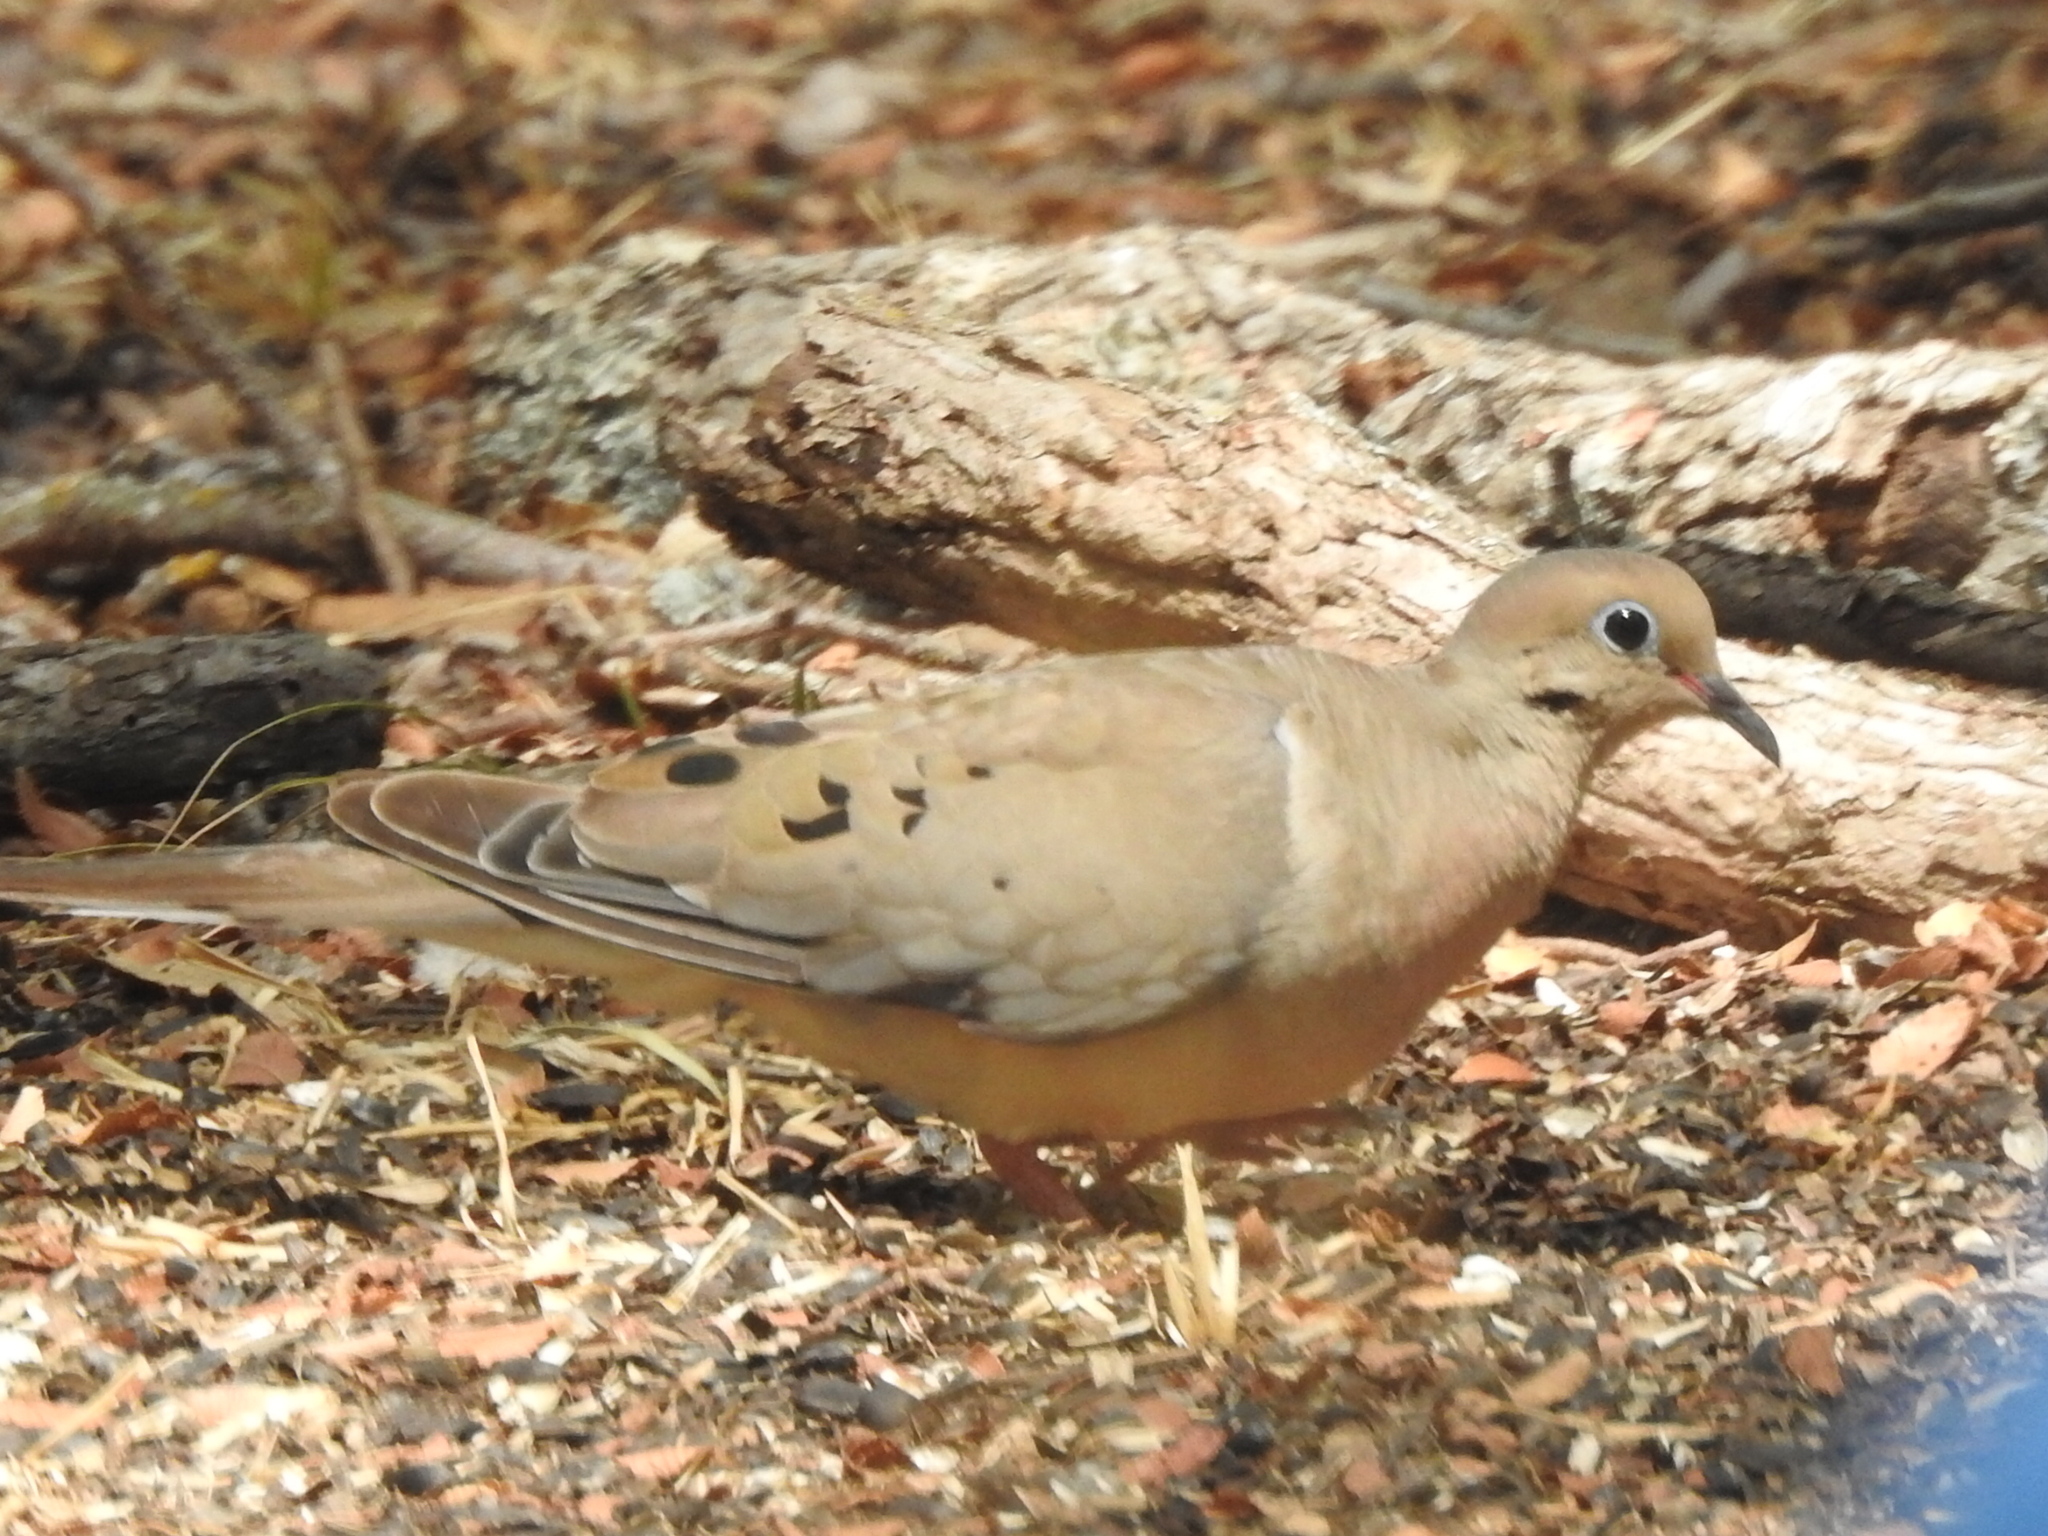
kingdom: Animalia
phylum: Chordata
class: Aves
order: Columbiformes
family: Columbidae
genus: Zenaida
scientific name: Zenaida macroura
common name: Mourning dove
